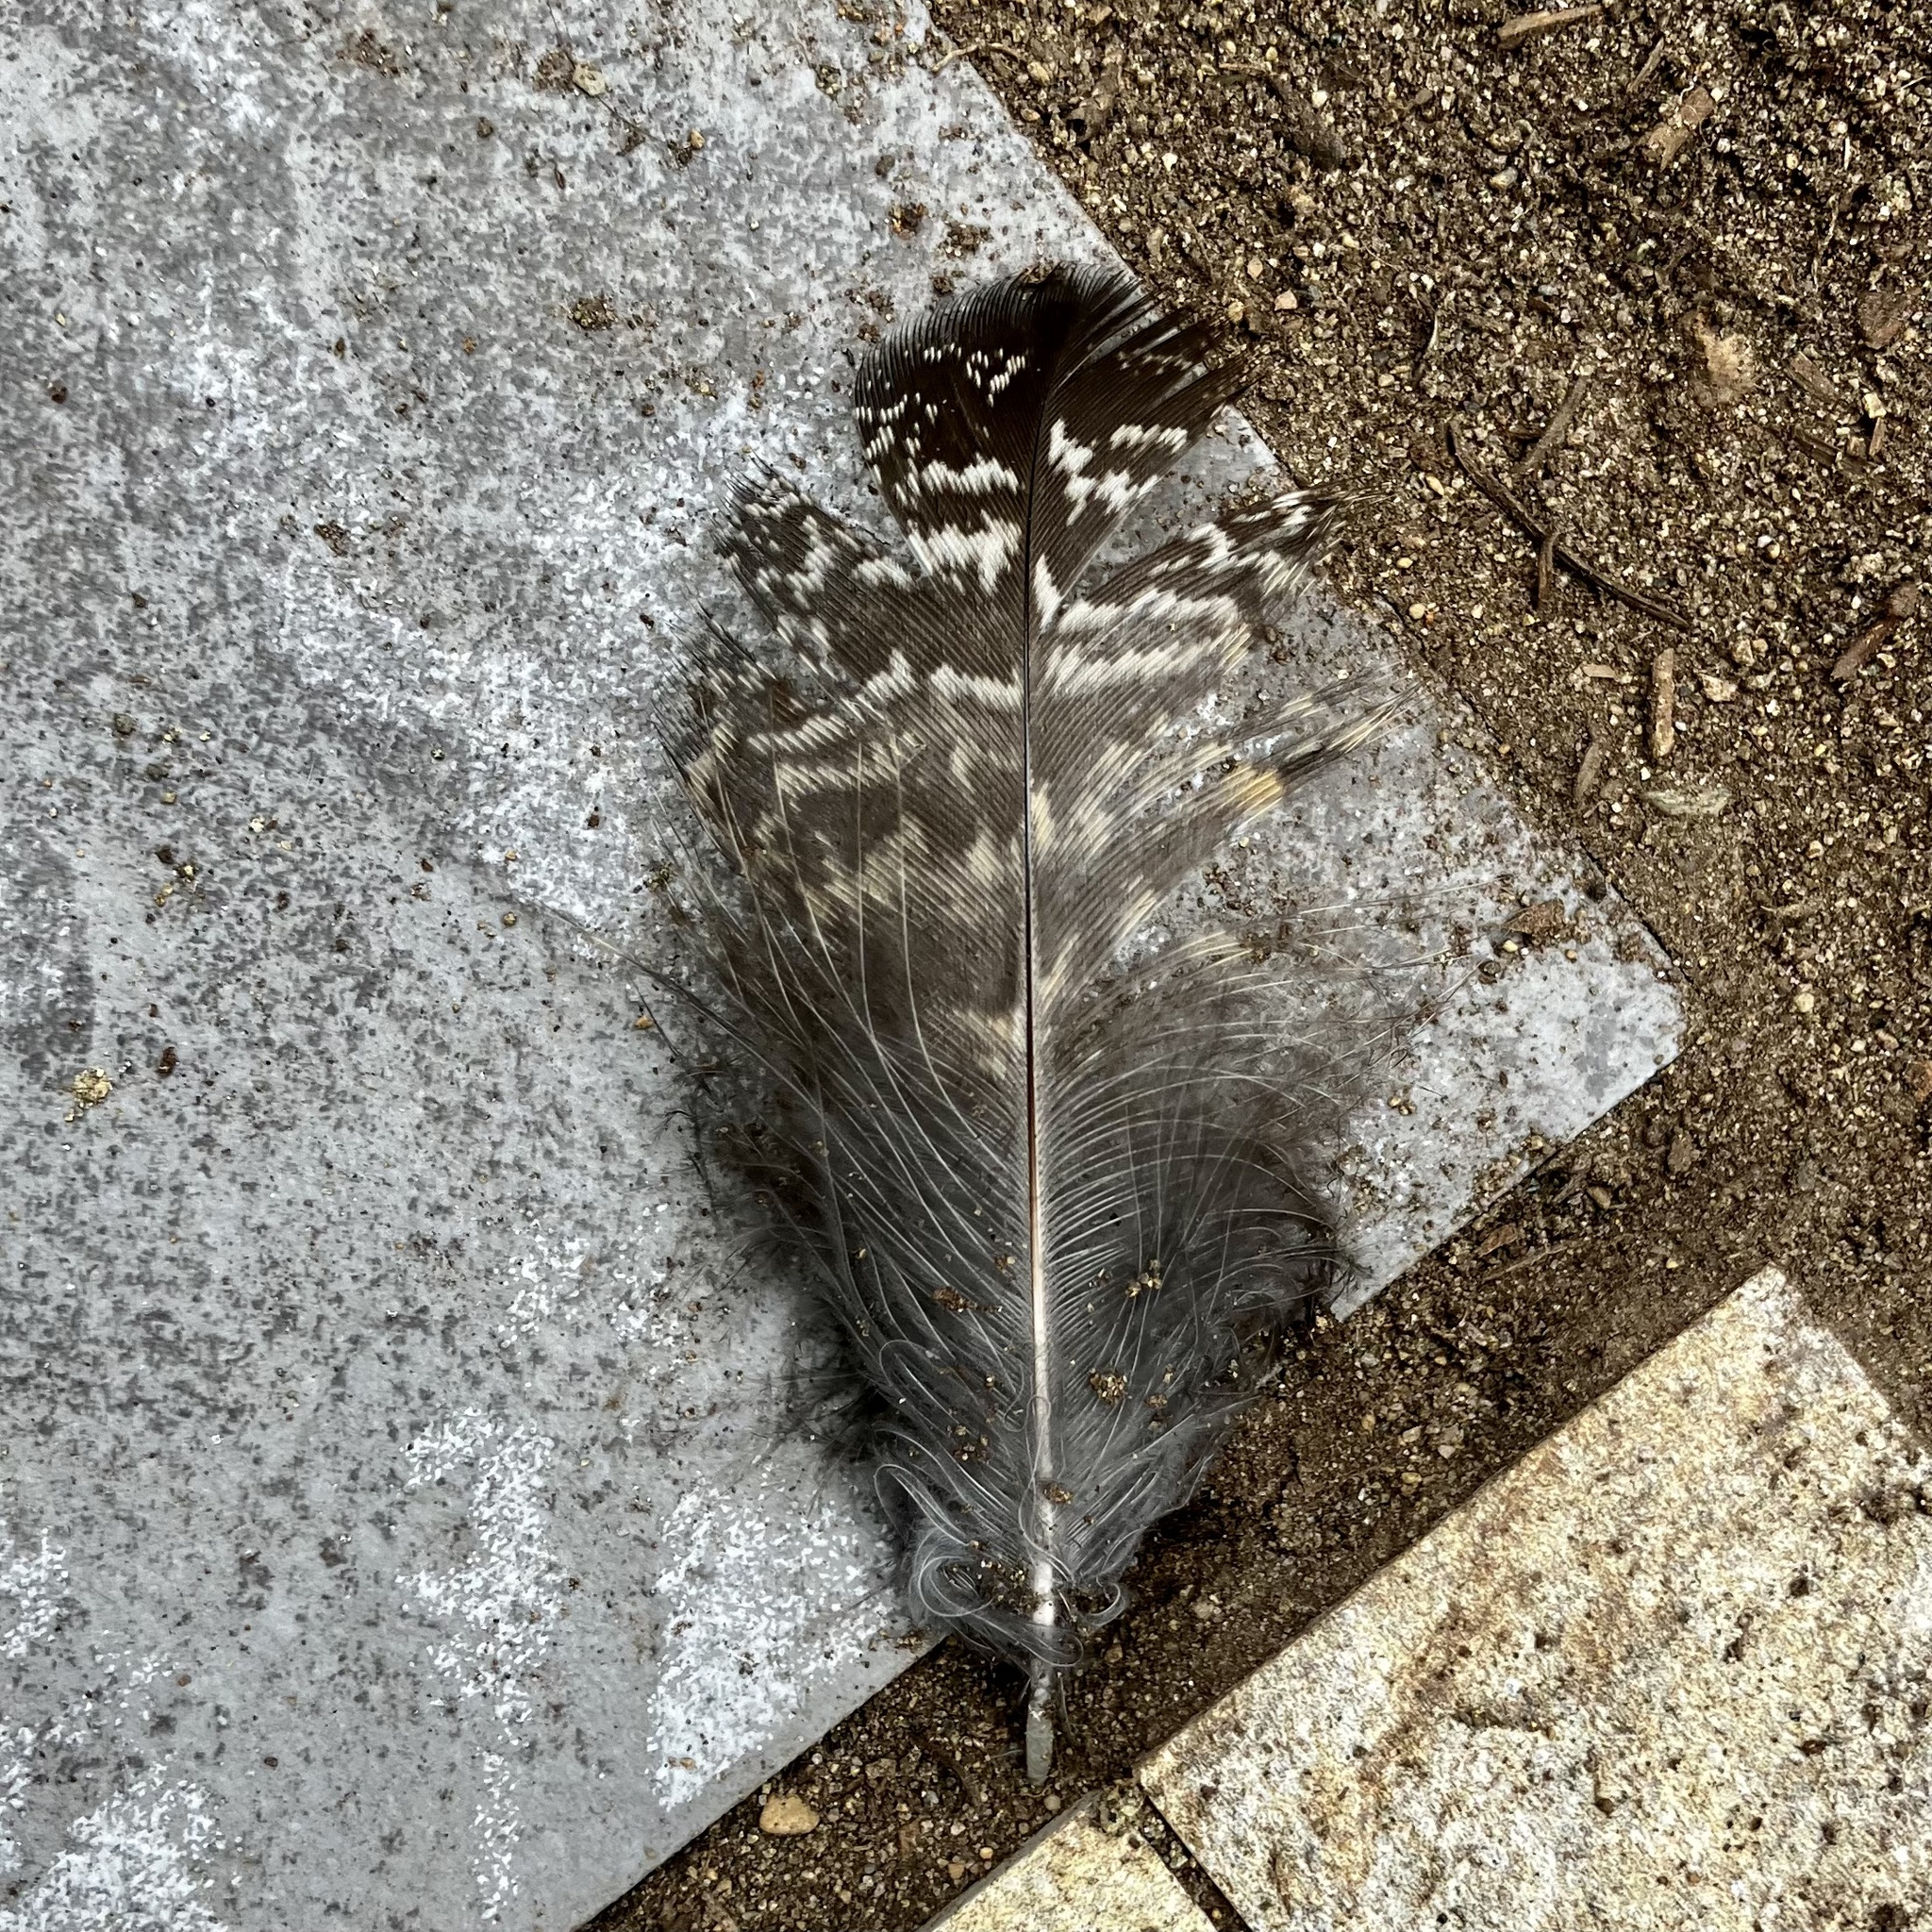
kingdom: Animalia
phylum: Chordata
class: Aves
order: Strigiformes
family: Strigidae
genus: Bubo
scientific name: Bubo virginianus
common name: Great horned owl
